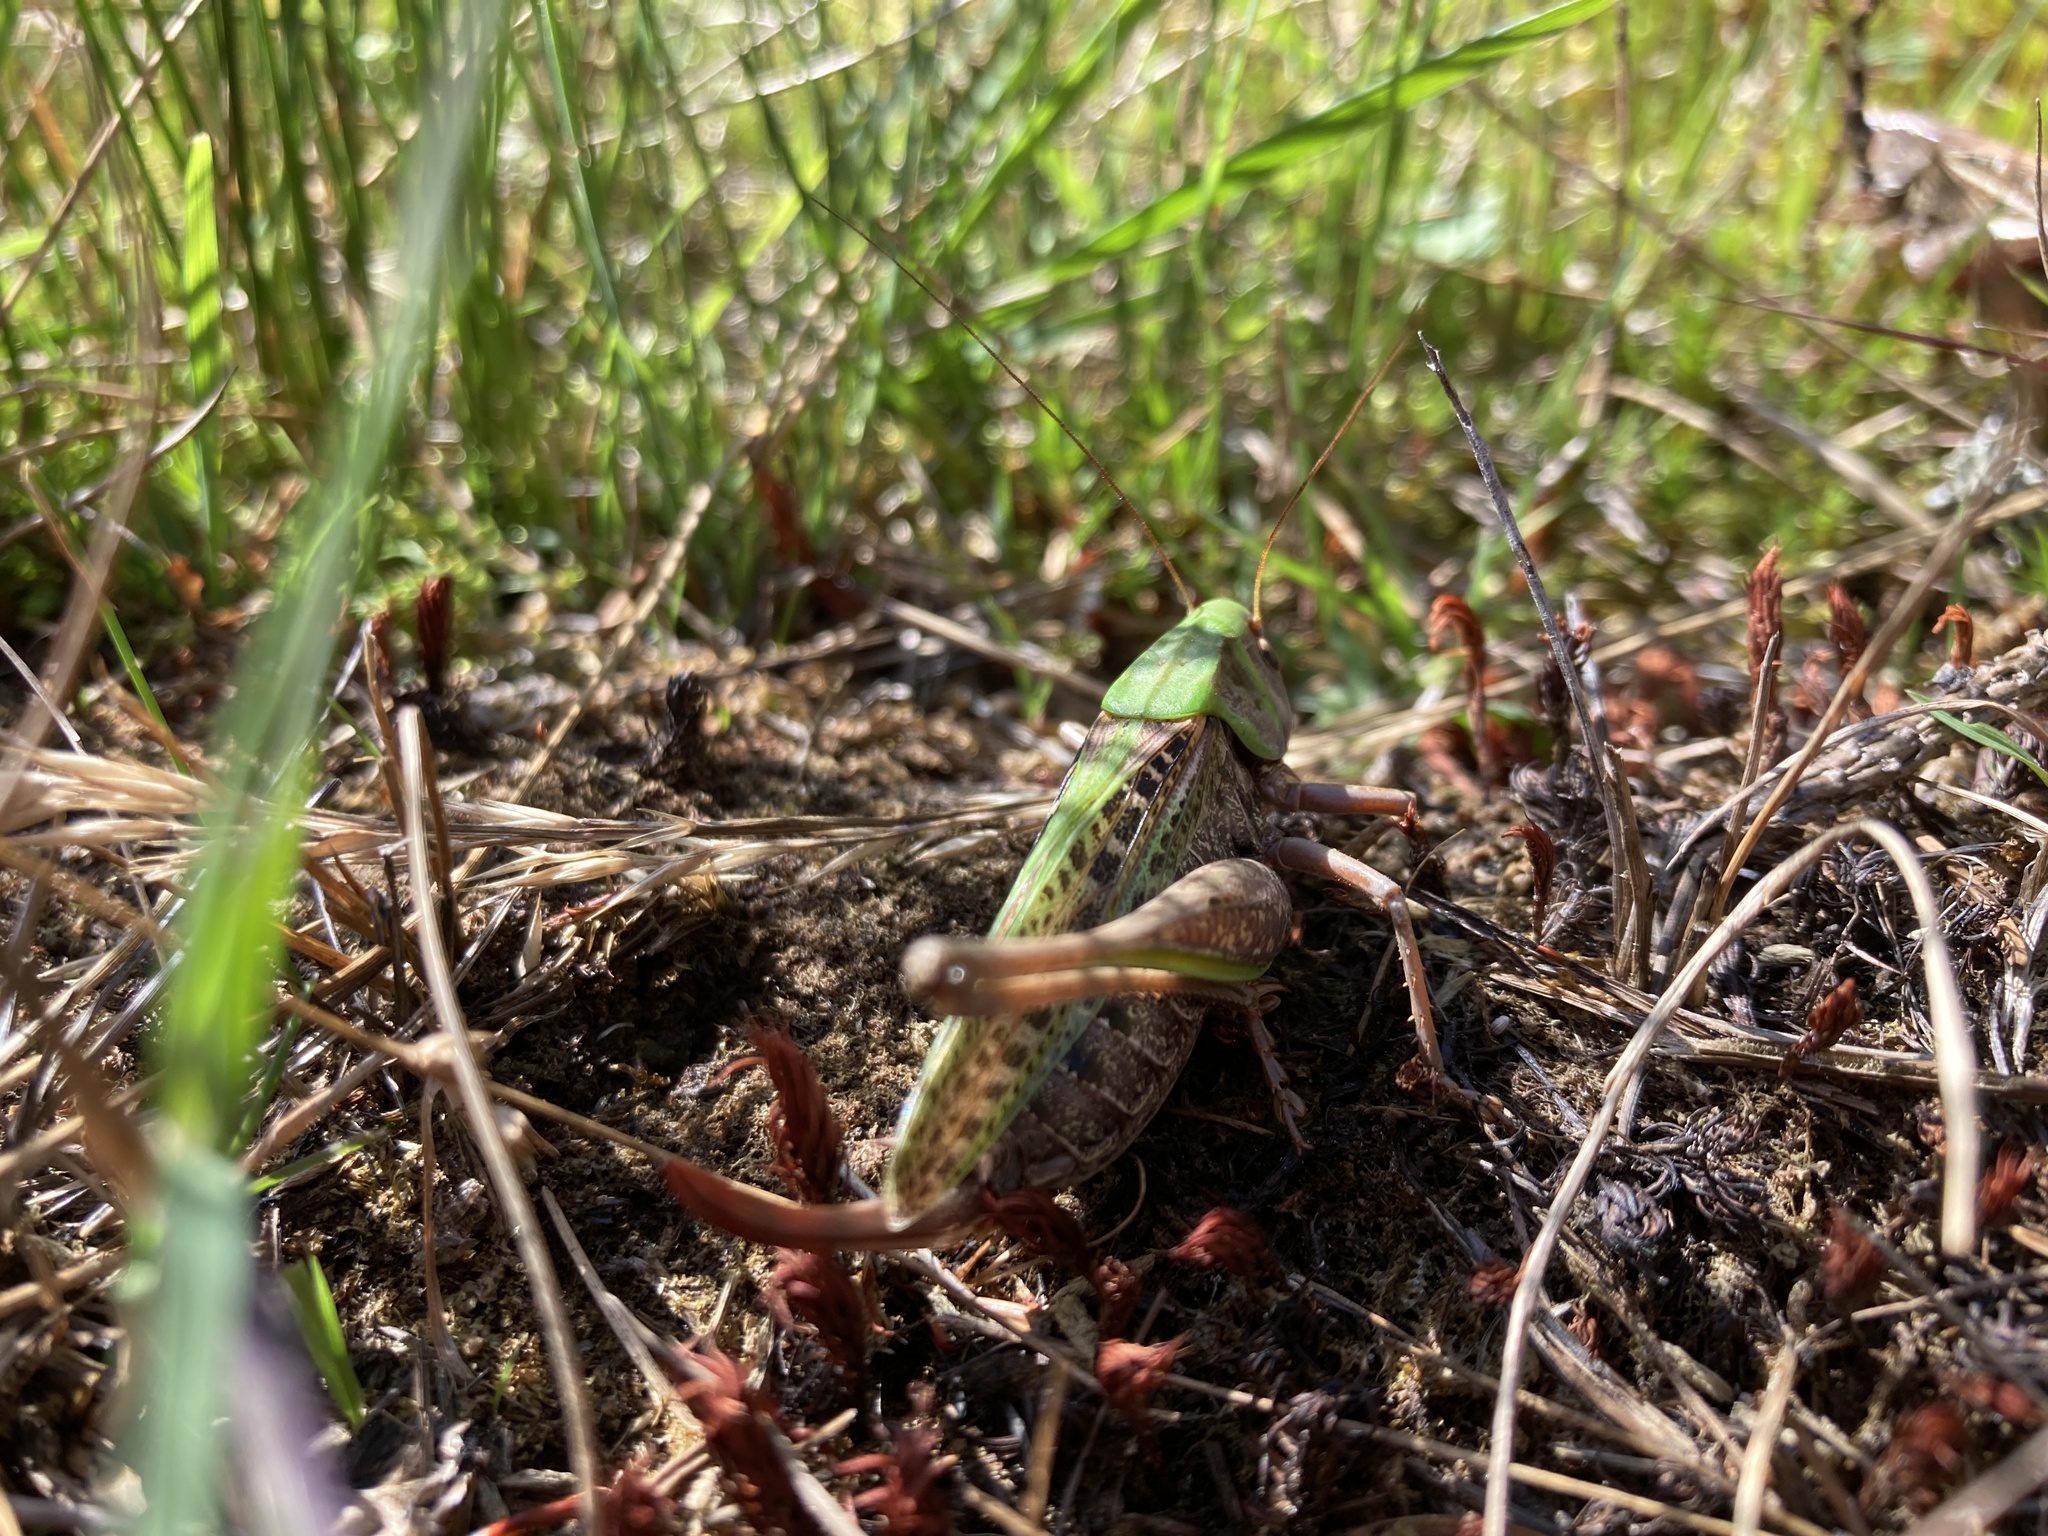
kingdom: Animalia
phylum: Arthropoda
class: Insecta
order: Orthoptera
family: Tettigoniidae
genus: Decticus
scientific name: Decticus verrucivorus
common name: Wart-biter
